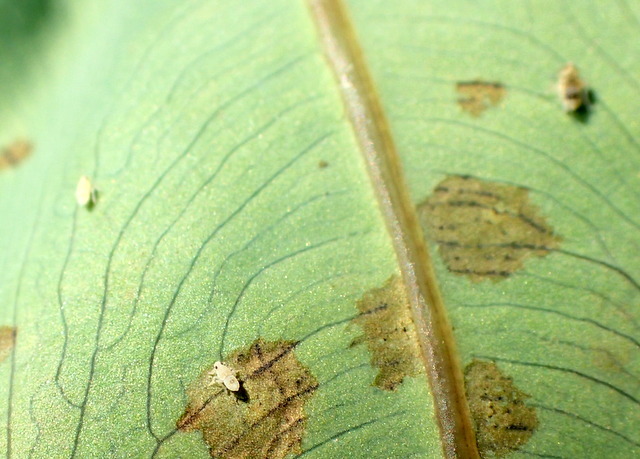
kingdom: Animalia
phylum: Arthropoda
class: Insecta
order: Hemiptera
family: Delphacidae
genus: Tarophagus
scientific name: Tarophagus colocasiae
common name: Taro planthopper
